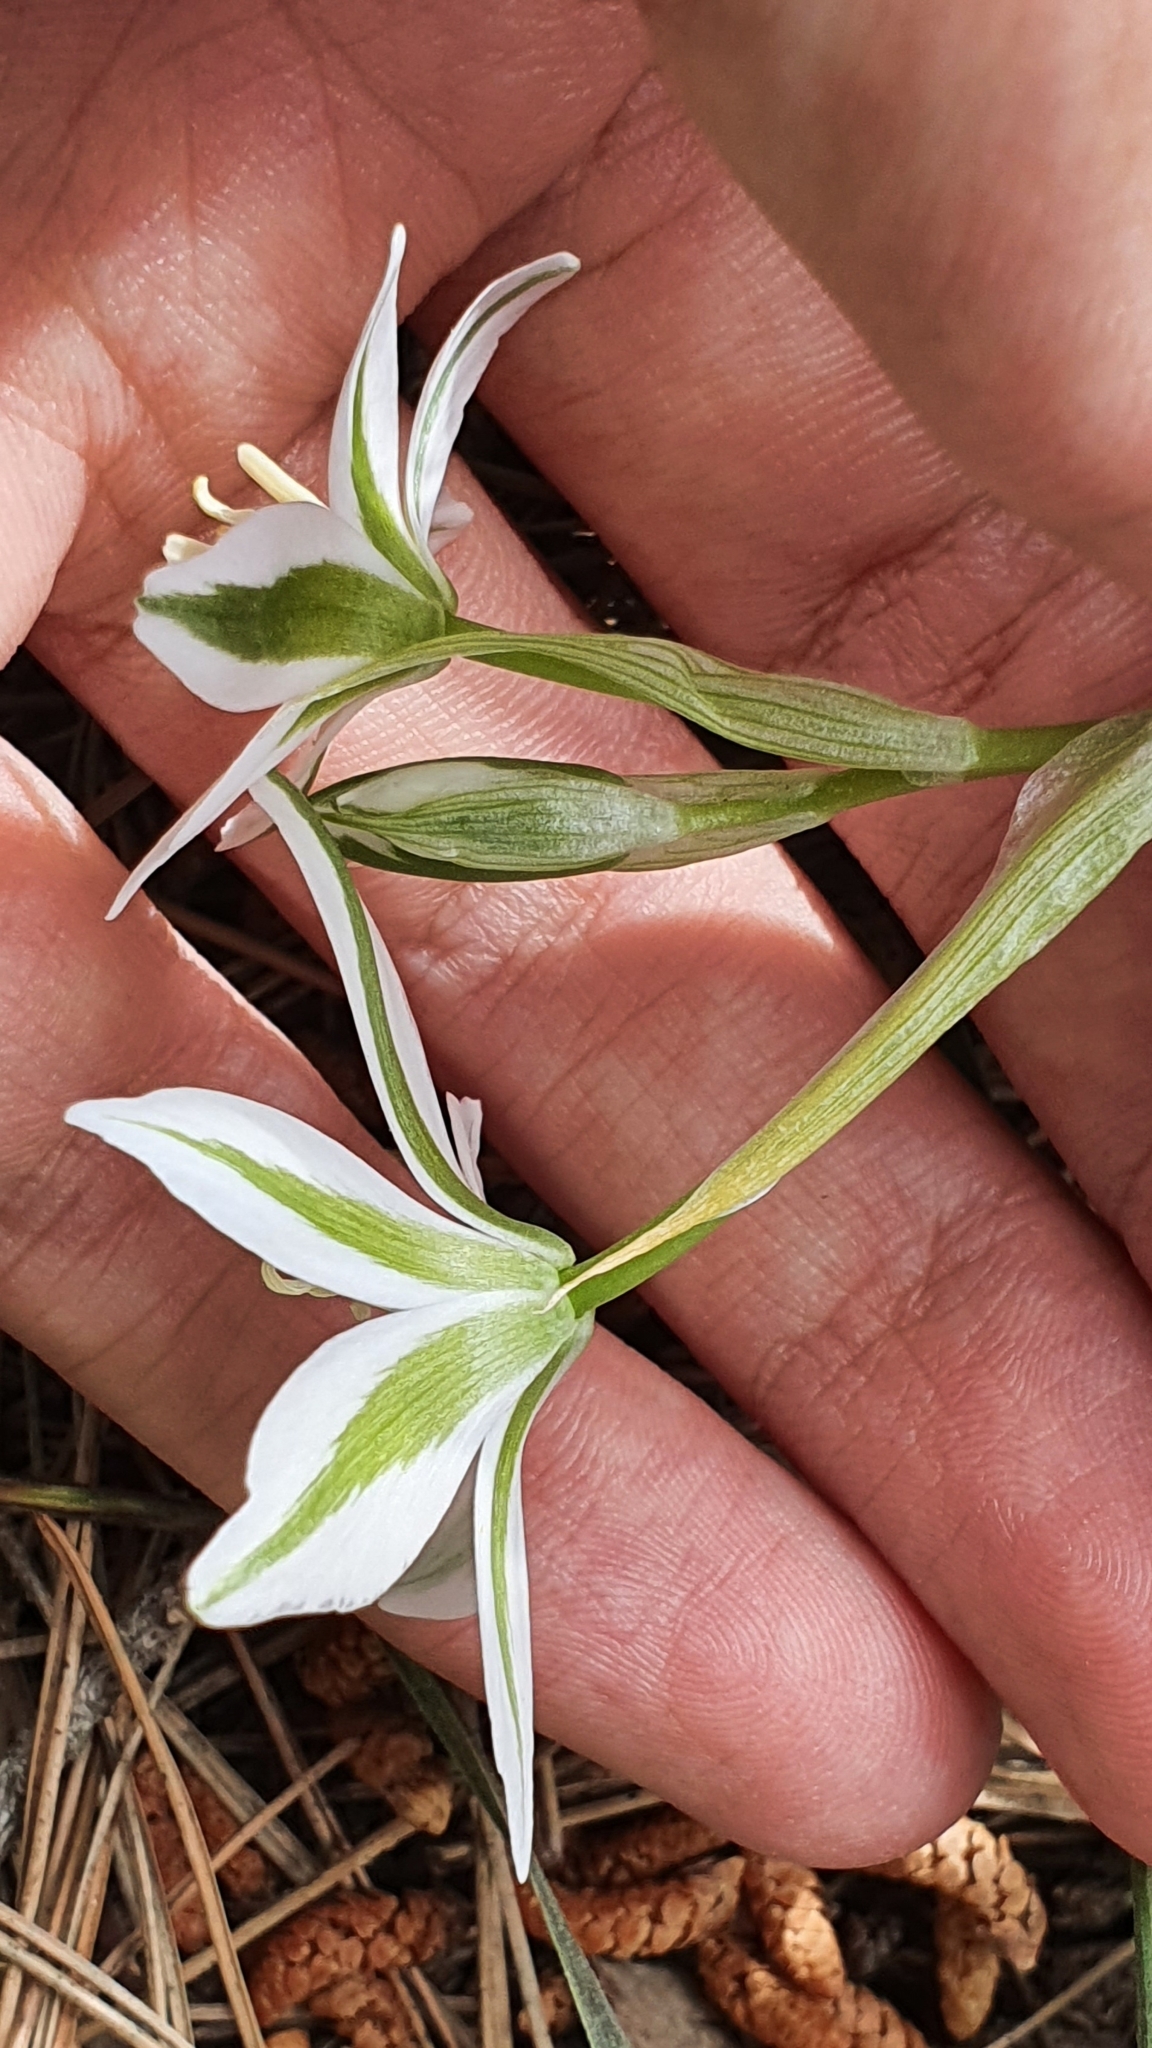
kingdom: Plantae
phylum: Tracheophyta
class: Liliopsida
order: Asparagales
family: Asparagaceae
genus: Ornithogalum
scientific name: Ornithogalum baeticum
